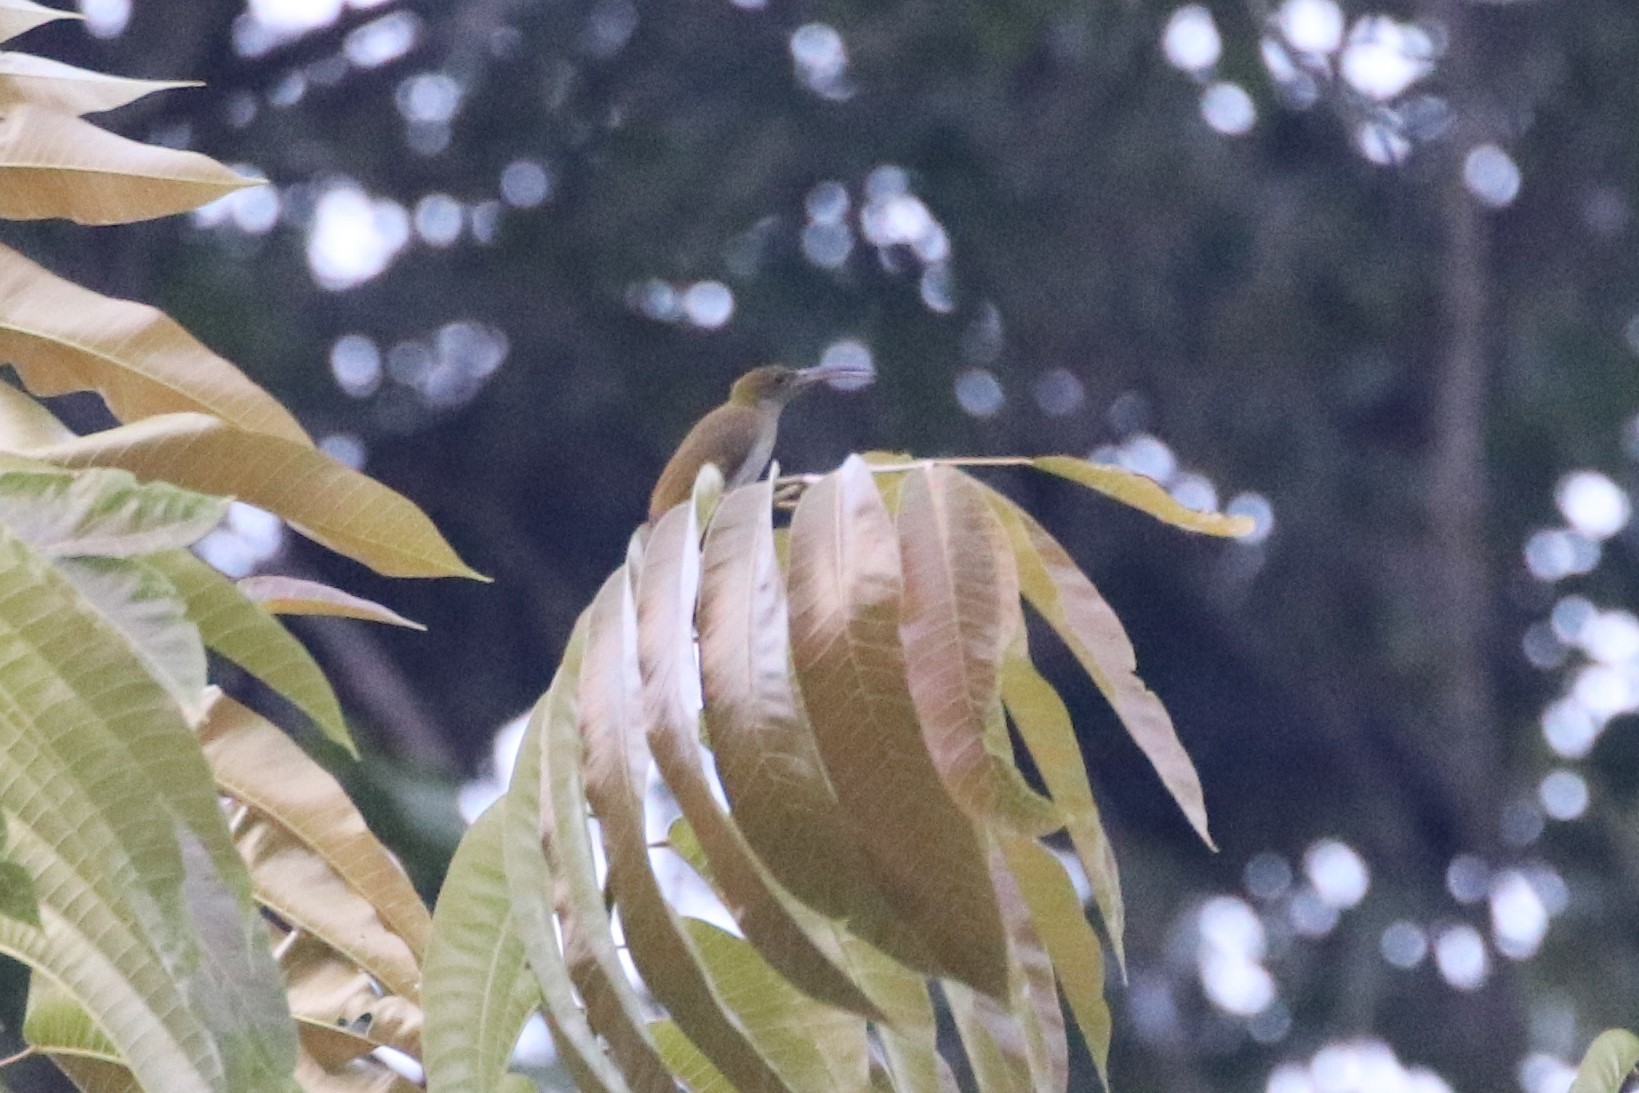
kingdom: Animalia
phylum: Chordata
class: Aves
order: Passeriformes
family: Nectariniidae
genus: Arachnothera
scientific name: Arachnothera modesta
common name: Grey-breasted spiderhunter
